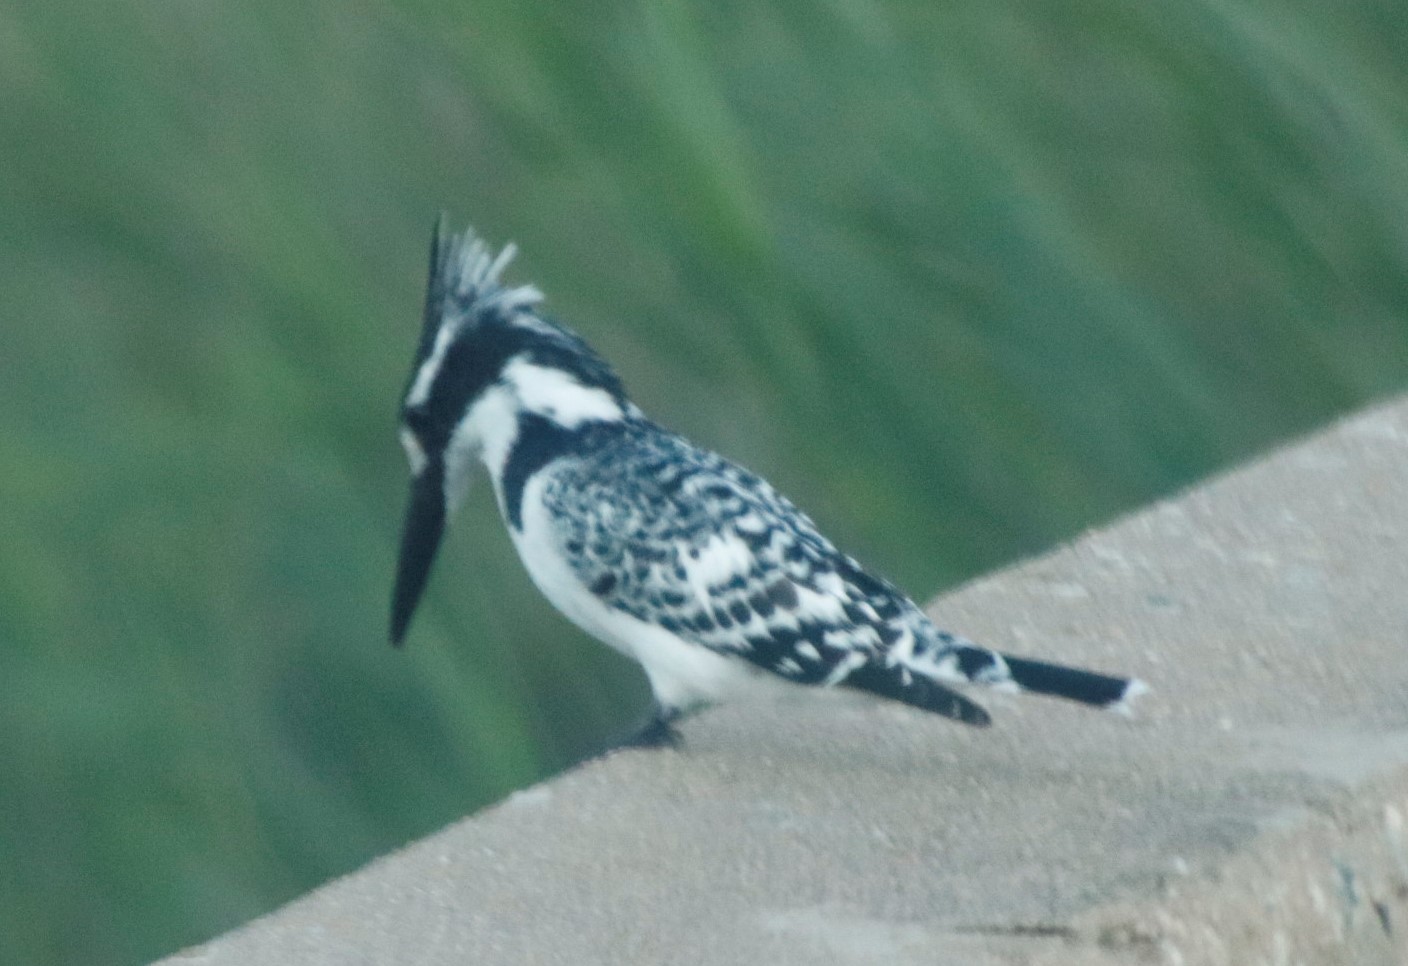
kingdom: Animalia
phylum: Chordata
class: Aves
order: Coraciiformes
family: Alcedinidae
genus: Ceryle
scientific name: Ceryle rudis
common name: Pied kingfisher
